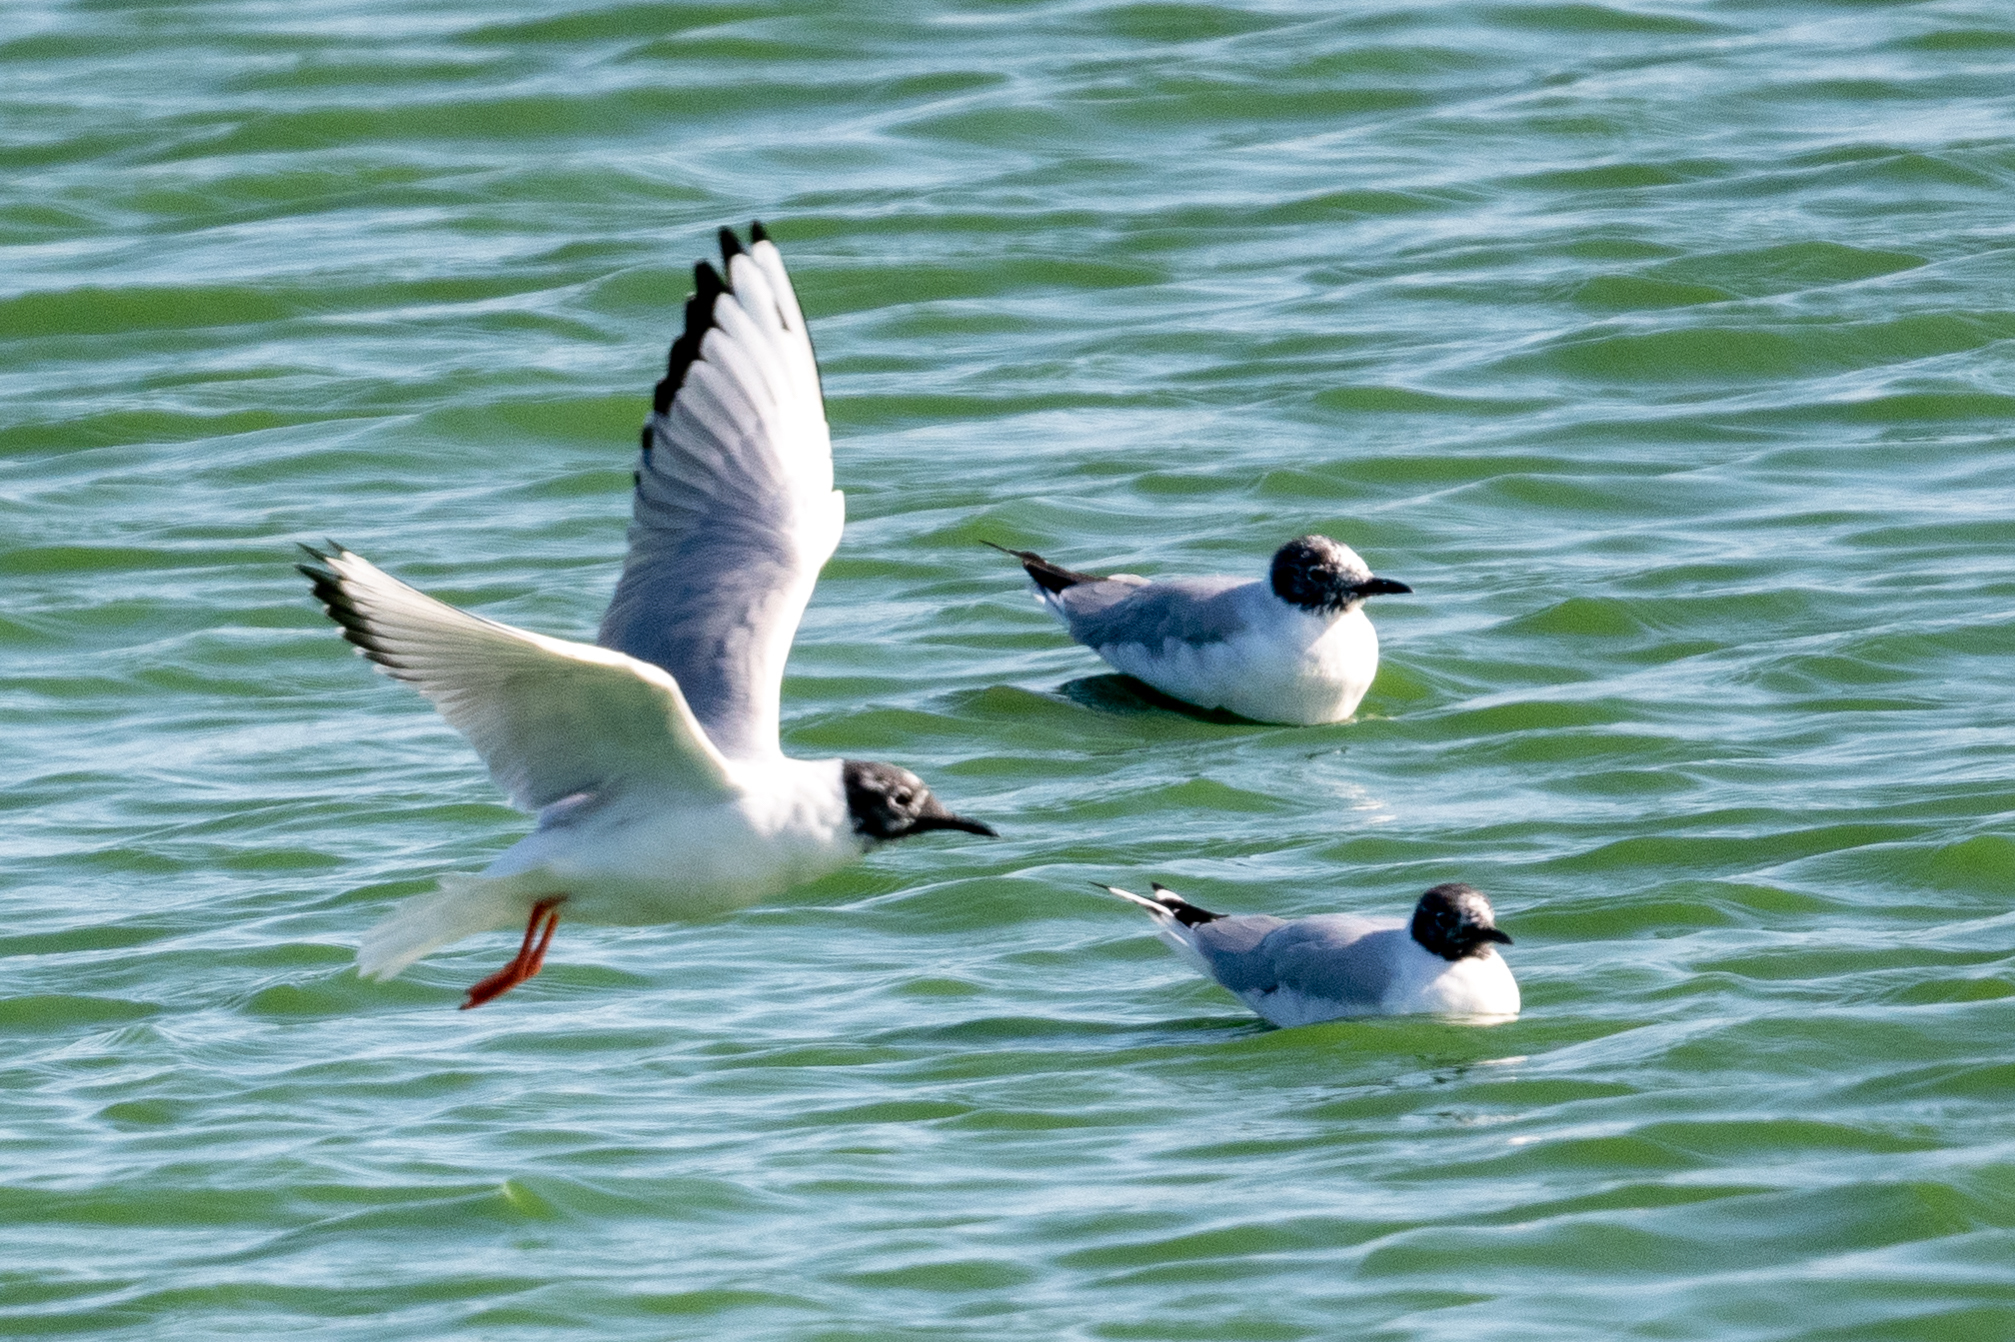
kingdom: Animalia
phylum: Chordata
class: Aves
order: Charadriiformes
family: Laridae
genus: Chroicocephalus
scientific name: Chroicocephalus philadelphia
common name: Bonaparte's gull
